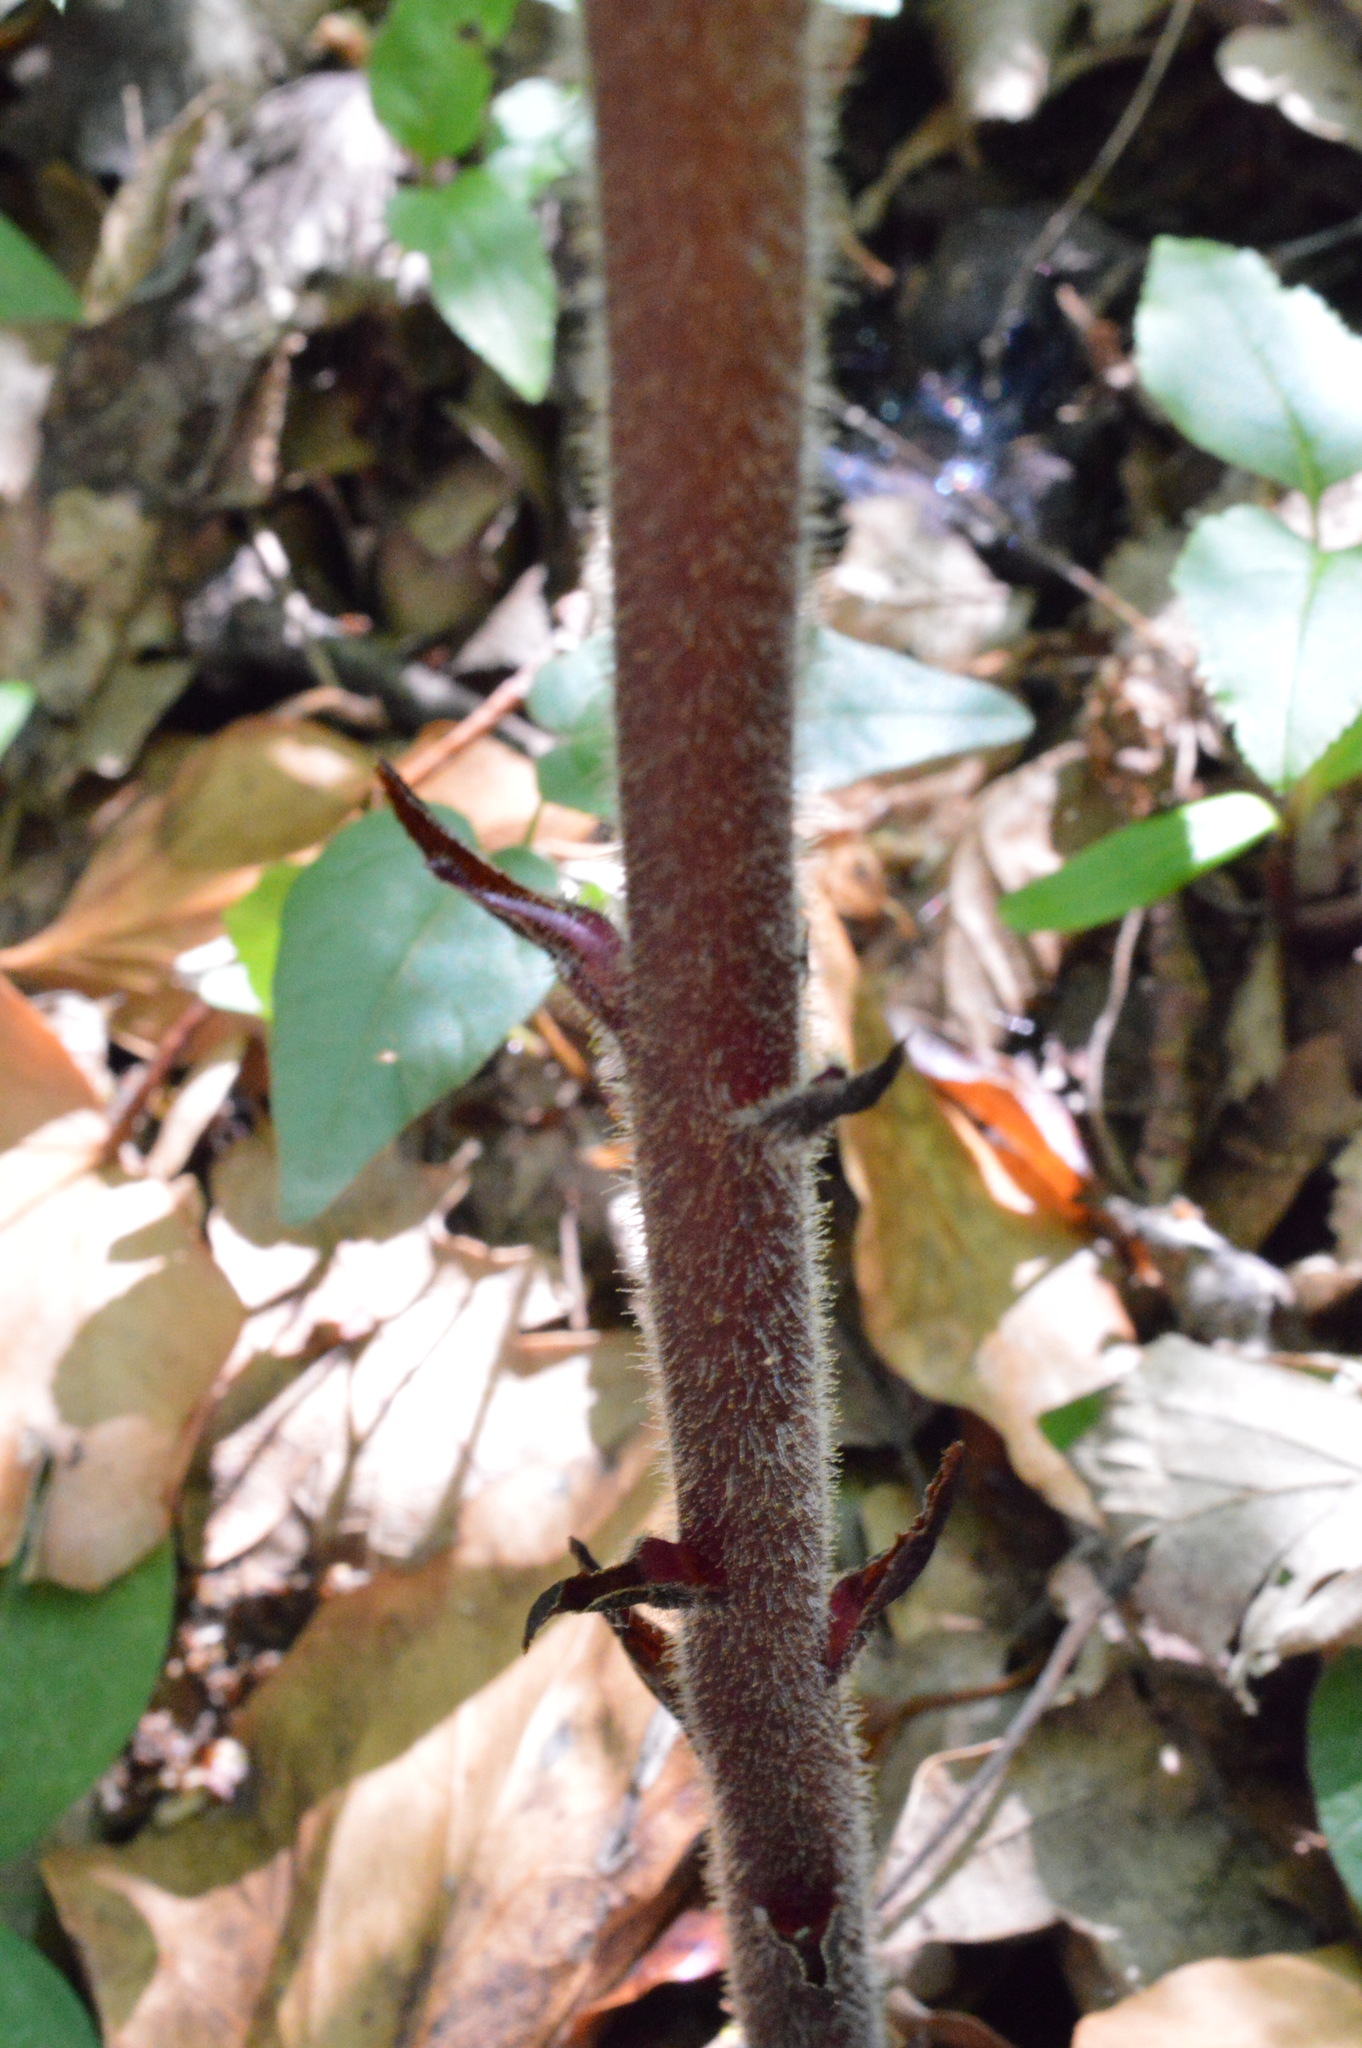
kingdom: Plantae
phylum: Tracheophyta
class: Magnoliopsida
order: Lamiales
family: Orobanchaceae
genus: Orobanche
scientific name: Orobanche hederae
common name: Ivy broomrape
